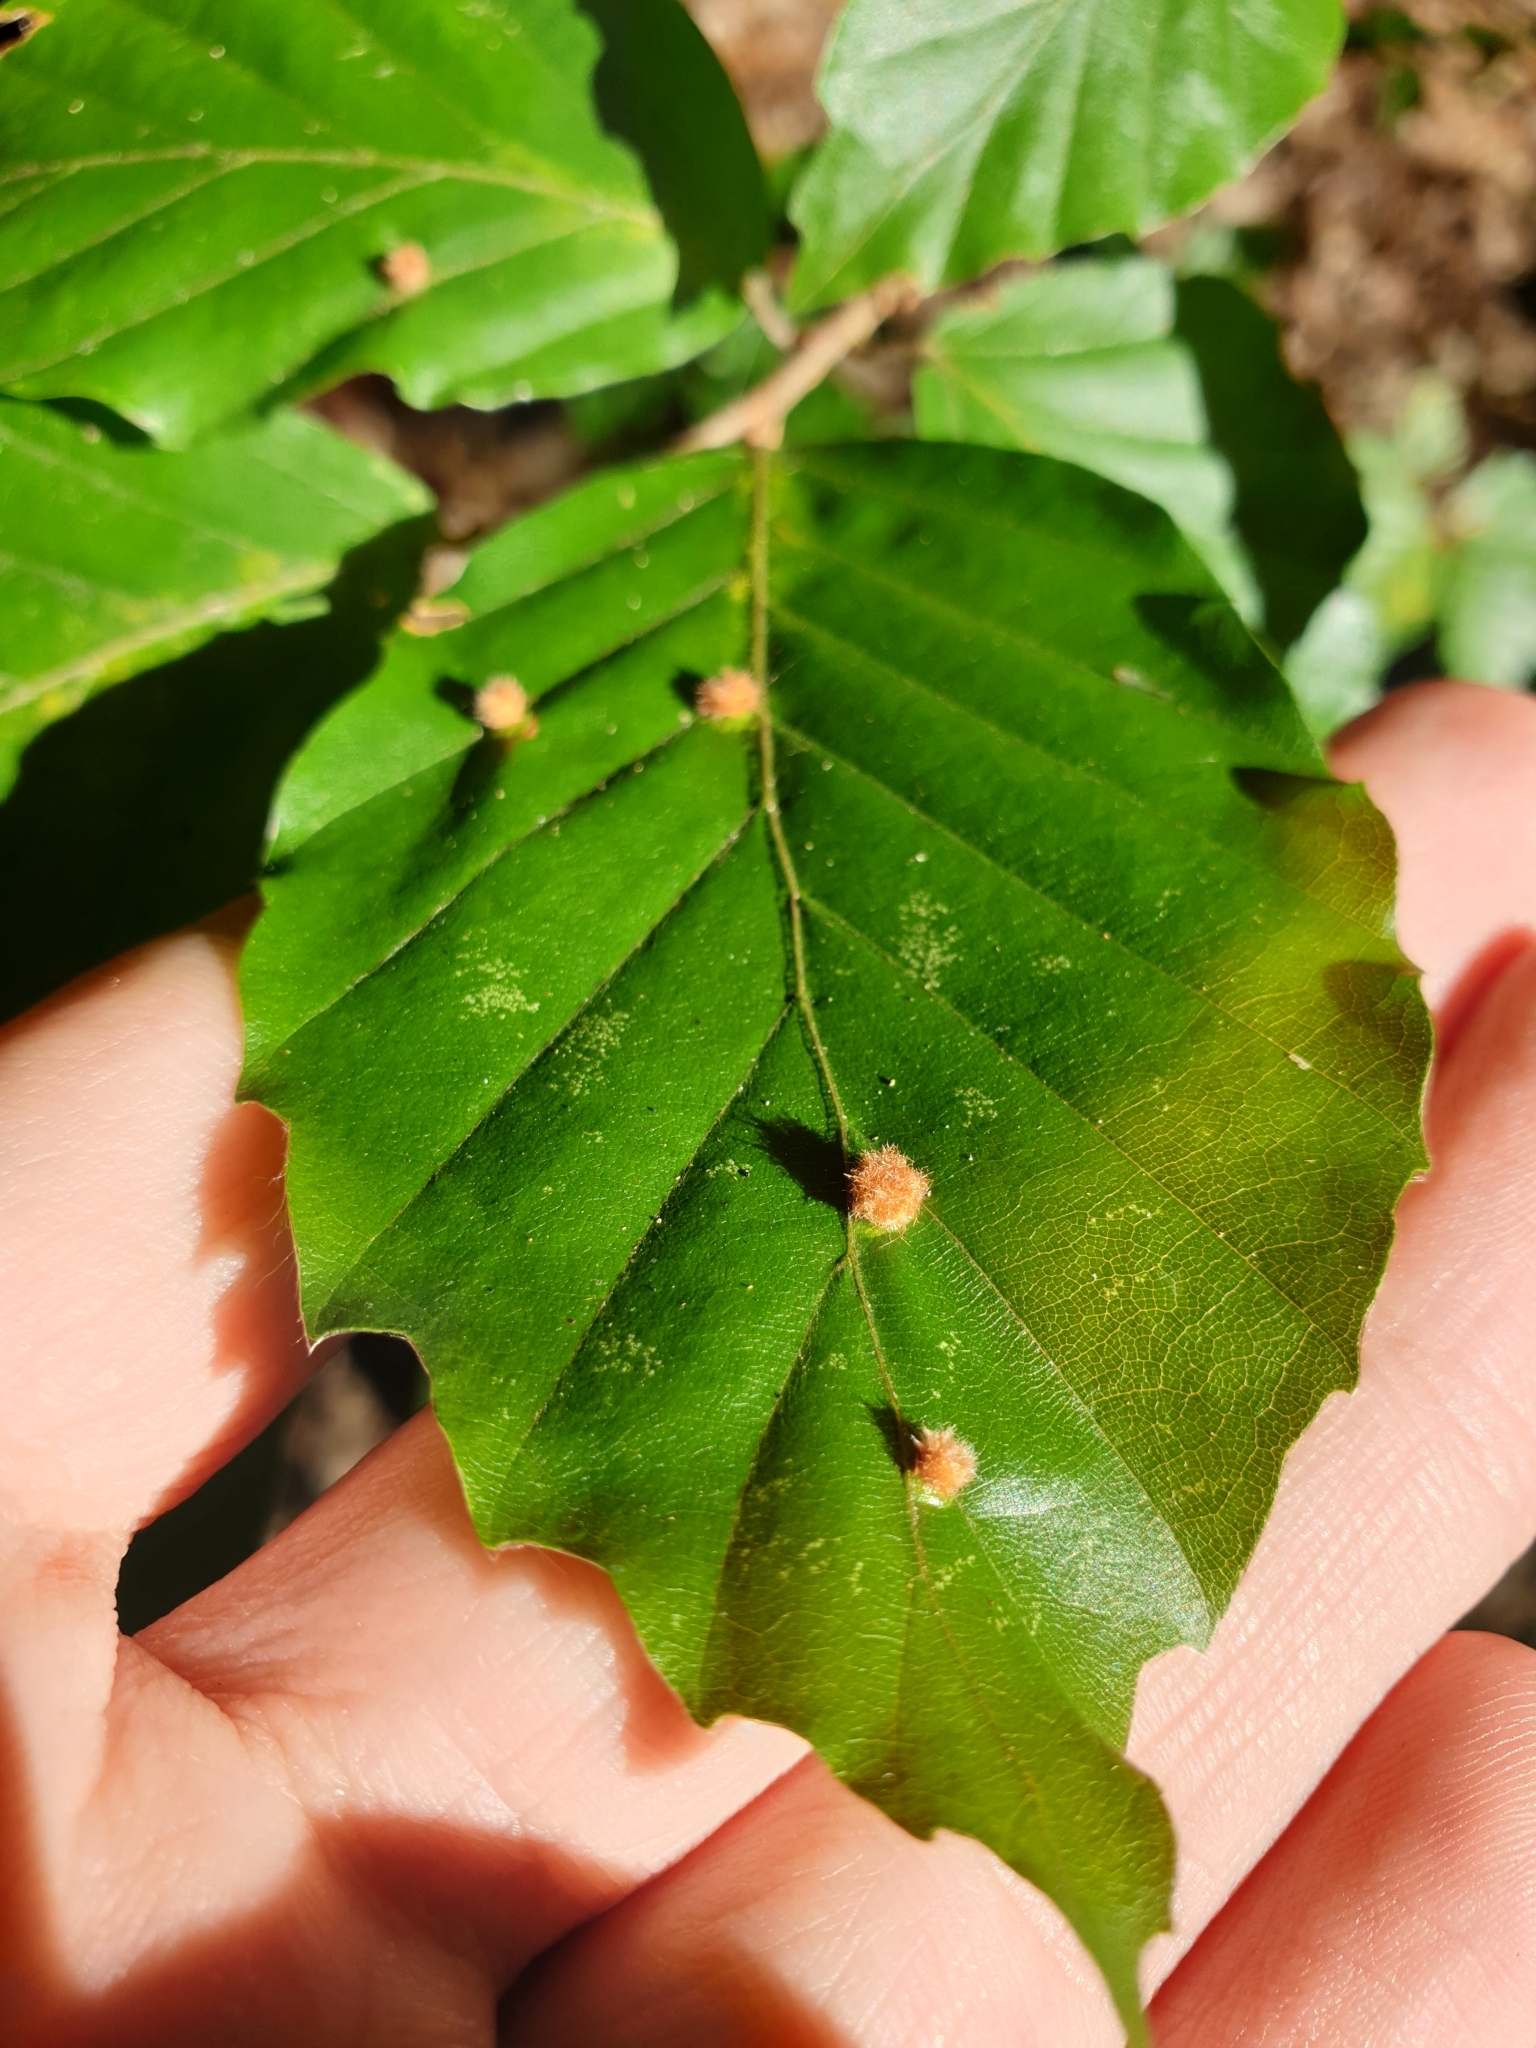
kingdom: Animalia
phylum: Arthropoda
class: Insecta
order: Diptera
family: Cecidomyiidae
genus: Hartigiola
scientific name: Hartigiola annulipes
